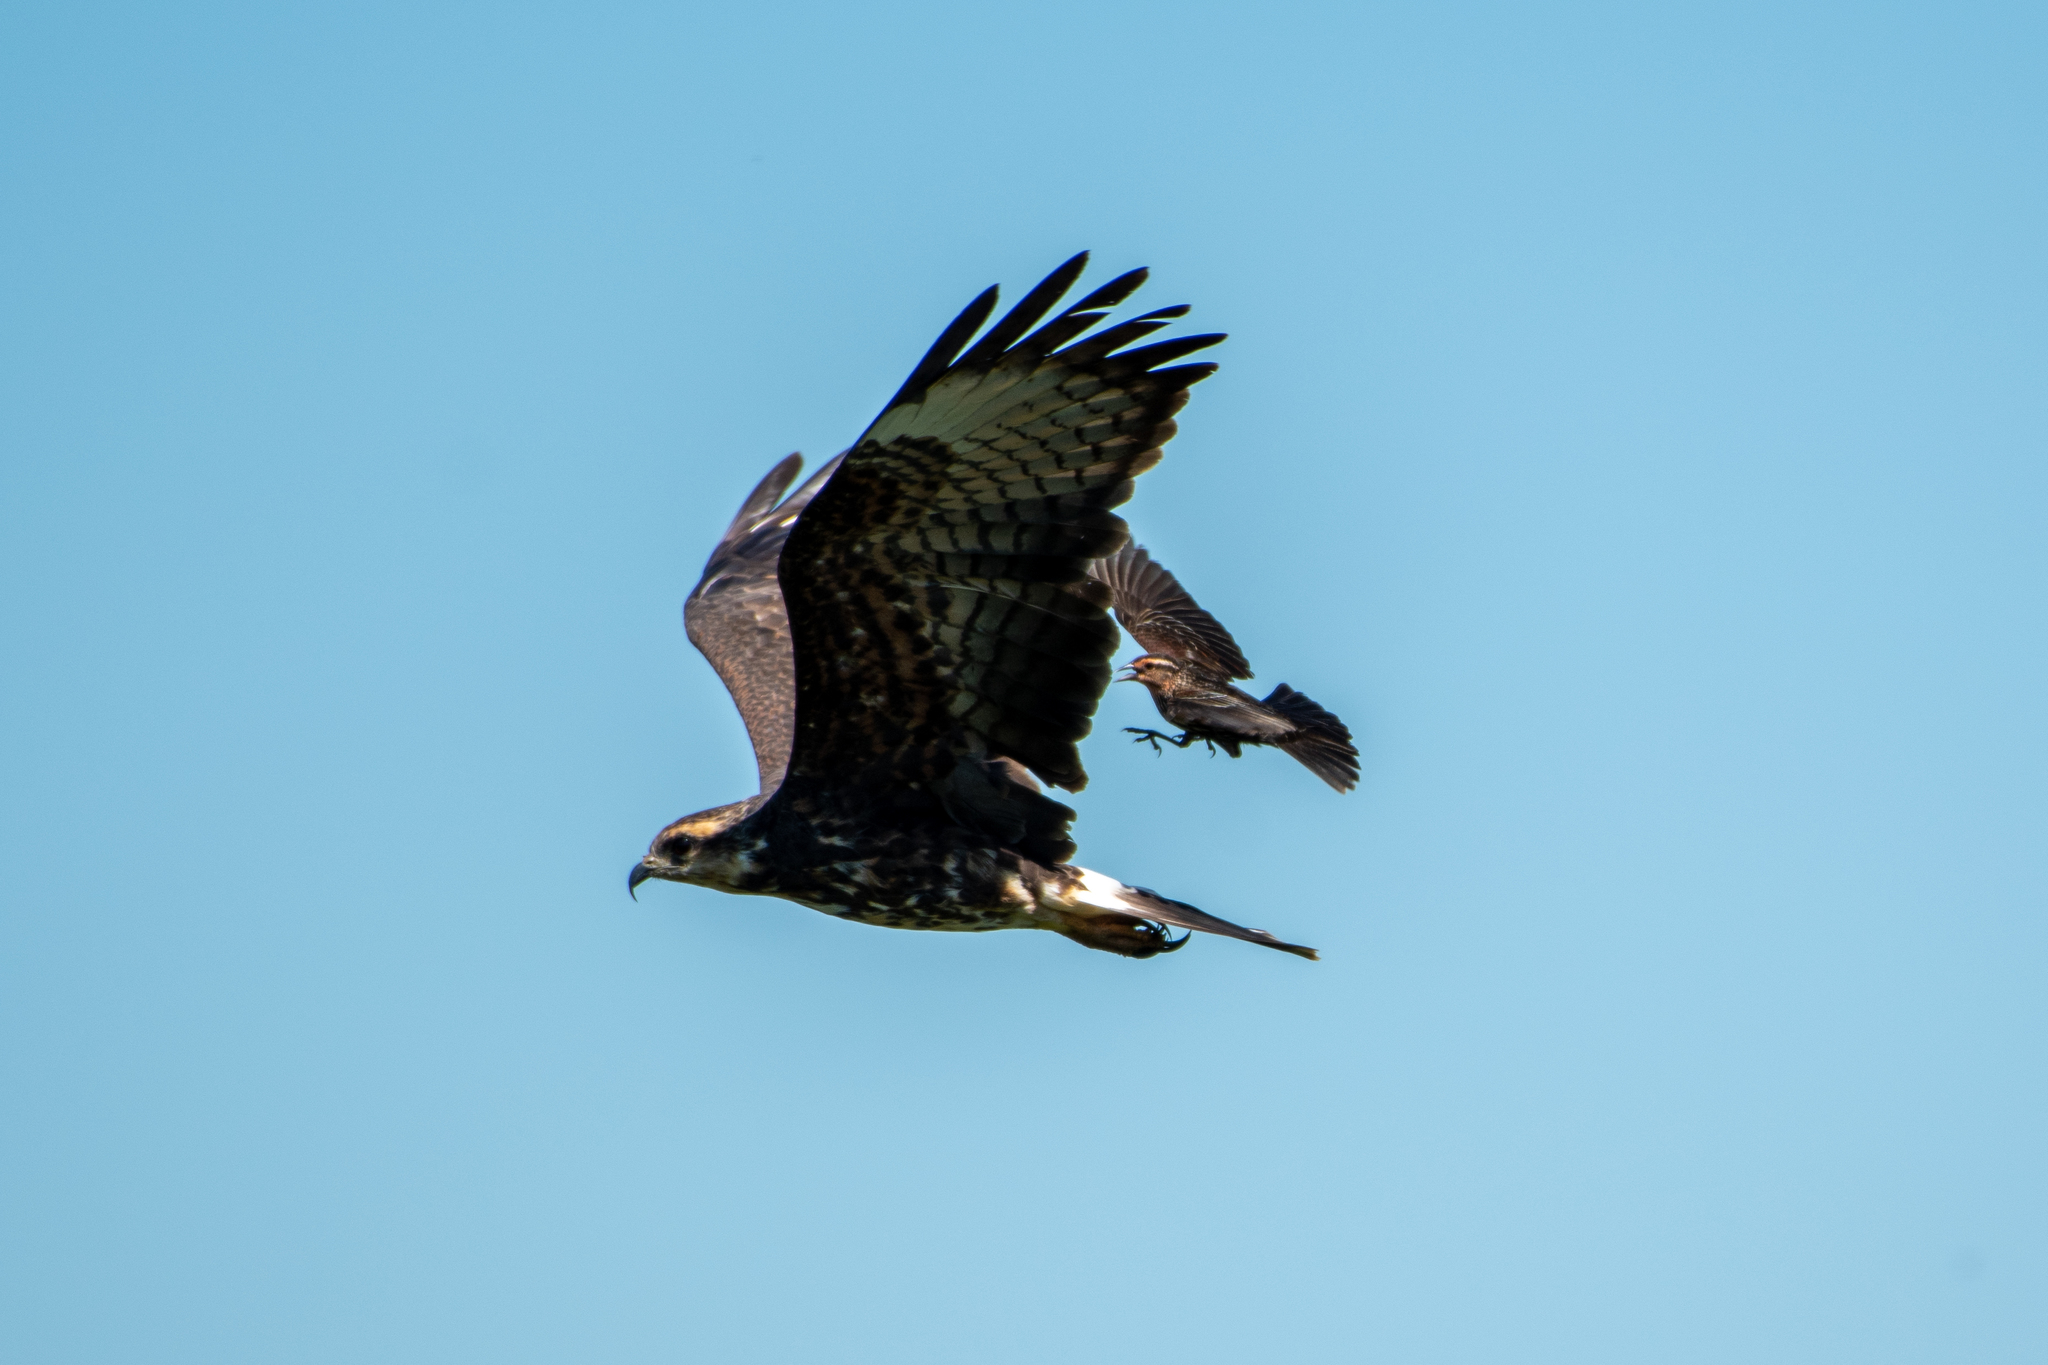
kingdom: Animalia
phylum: Chordata
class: Aves
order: Accipitriformes
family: Accipitridae
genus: Rostrhamus
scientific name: Rostrhamus sociabilis
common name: Snail kite
